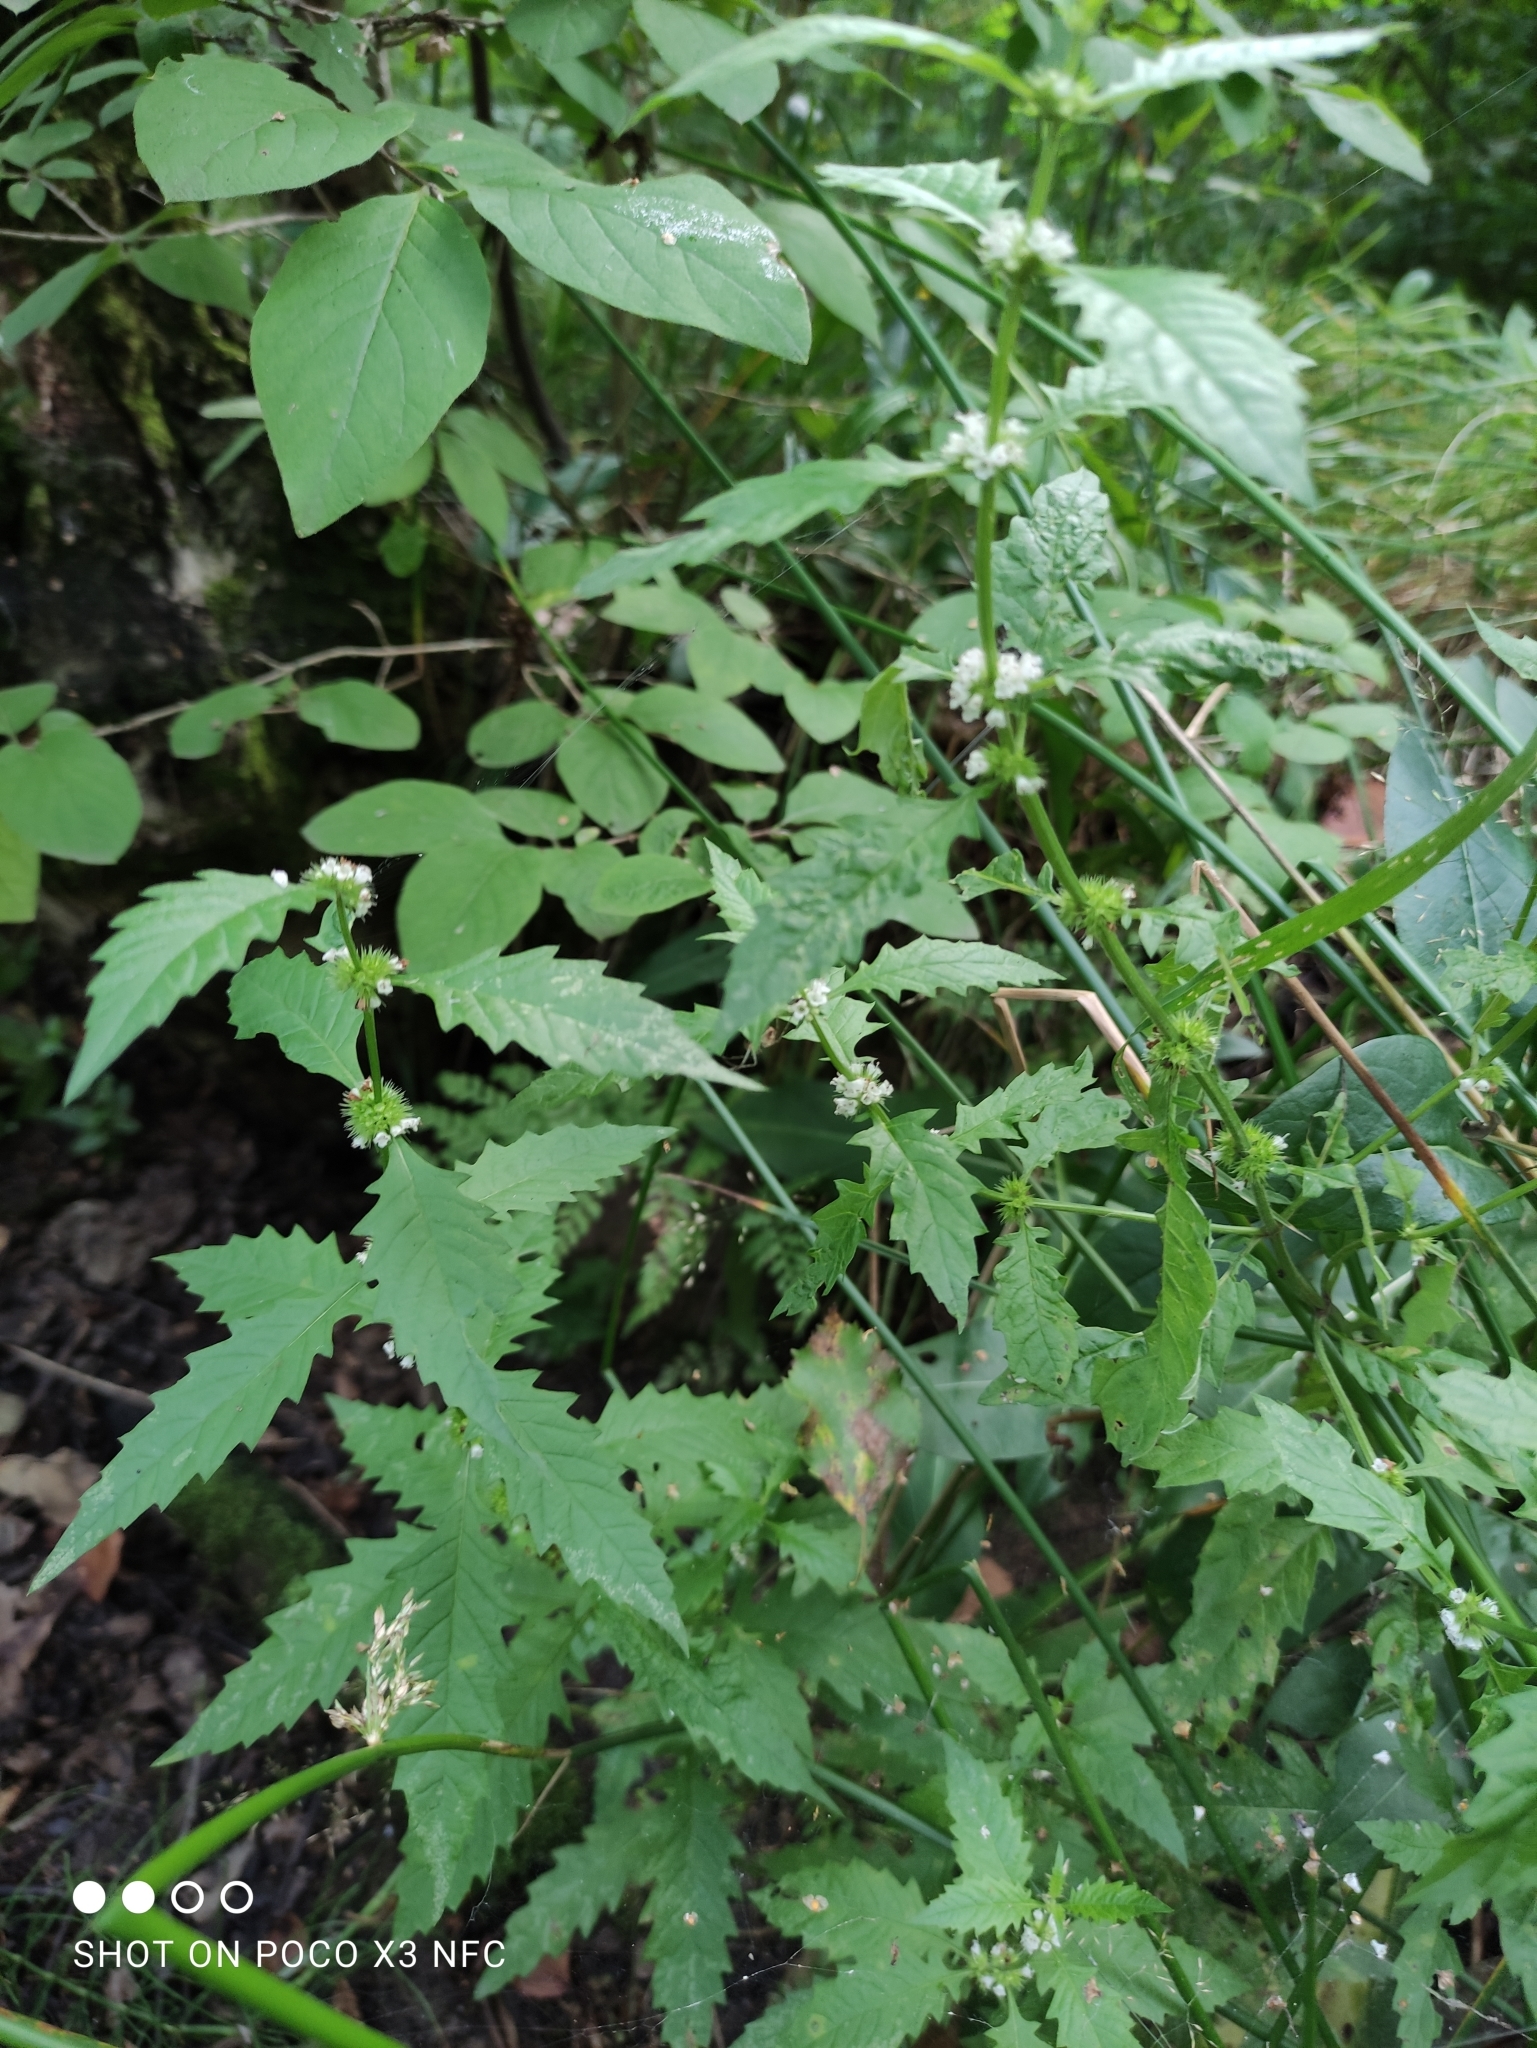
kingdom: Plantae
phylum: Tracheophyta
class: Magnoliopsida
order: Lamiales
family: Lamiaceae
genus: Lycopus
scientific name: Lycopus europaeus
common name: European bugleweed
